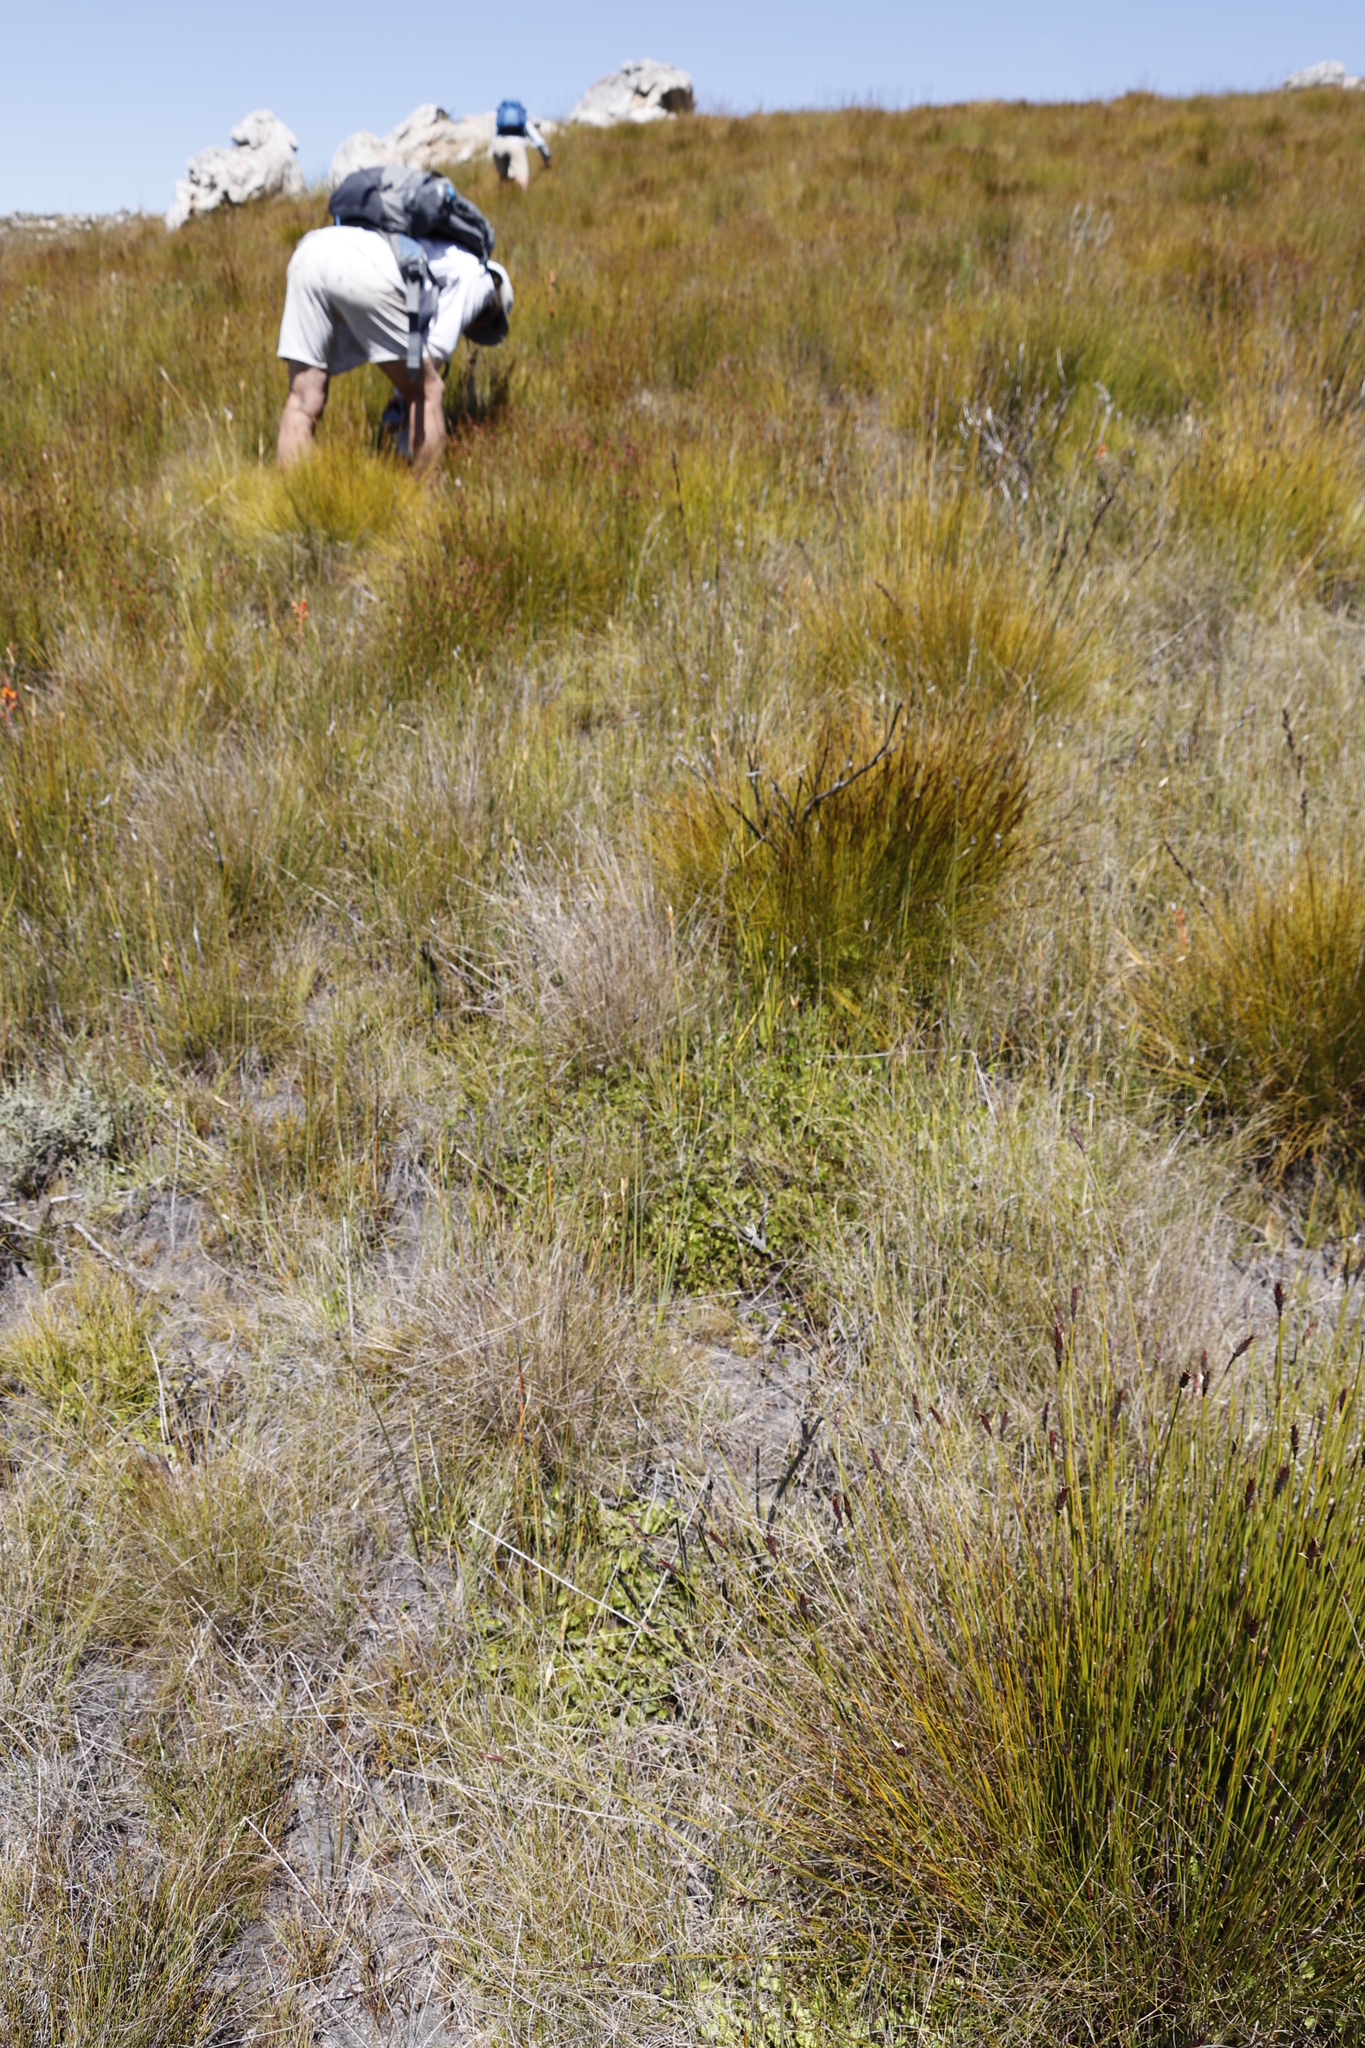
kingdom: Plantae
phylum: Tracheophyta
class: Magnoliopsida
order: Apiales
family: Apiaceae
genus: Centella
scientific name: Centella eriantha
